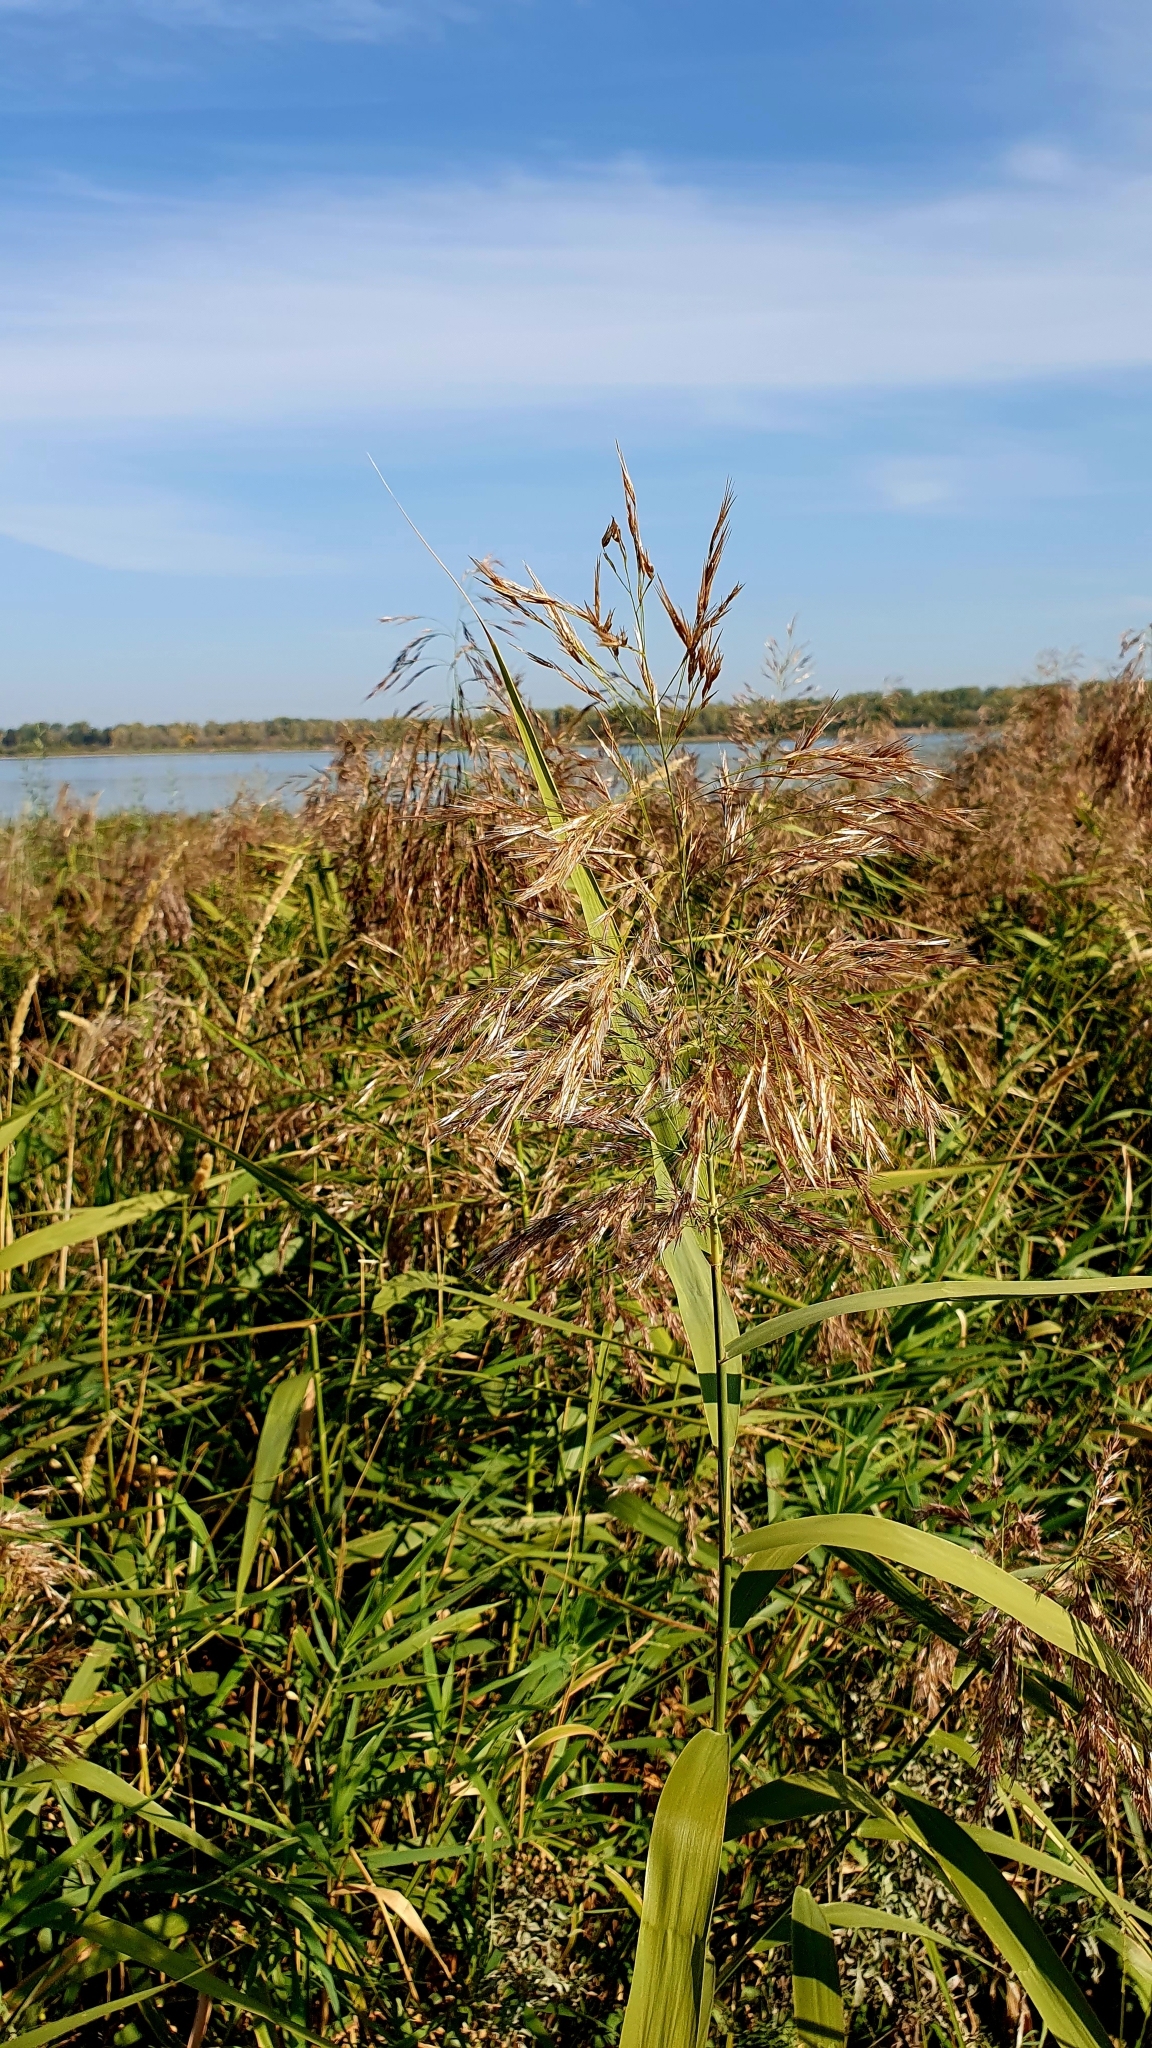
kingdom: Plantae
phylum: Tracheophyta
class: Liliopsida
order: Poales
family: Poaceae
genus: Phragmites
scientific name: Phragmites australis
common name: Common reed
